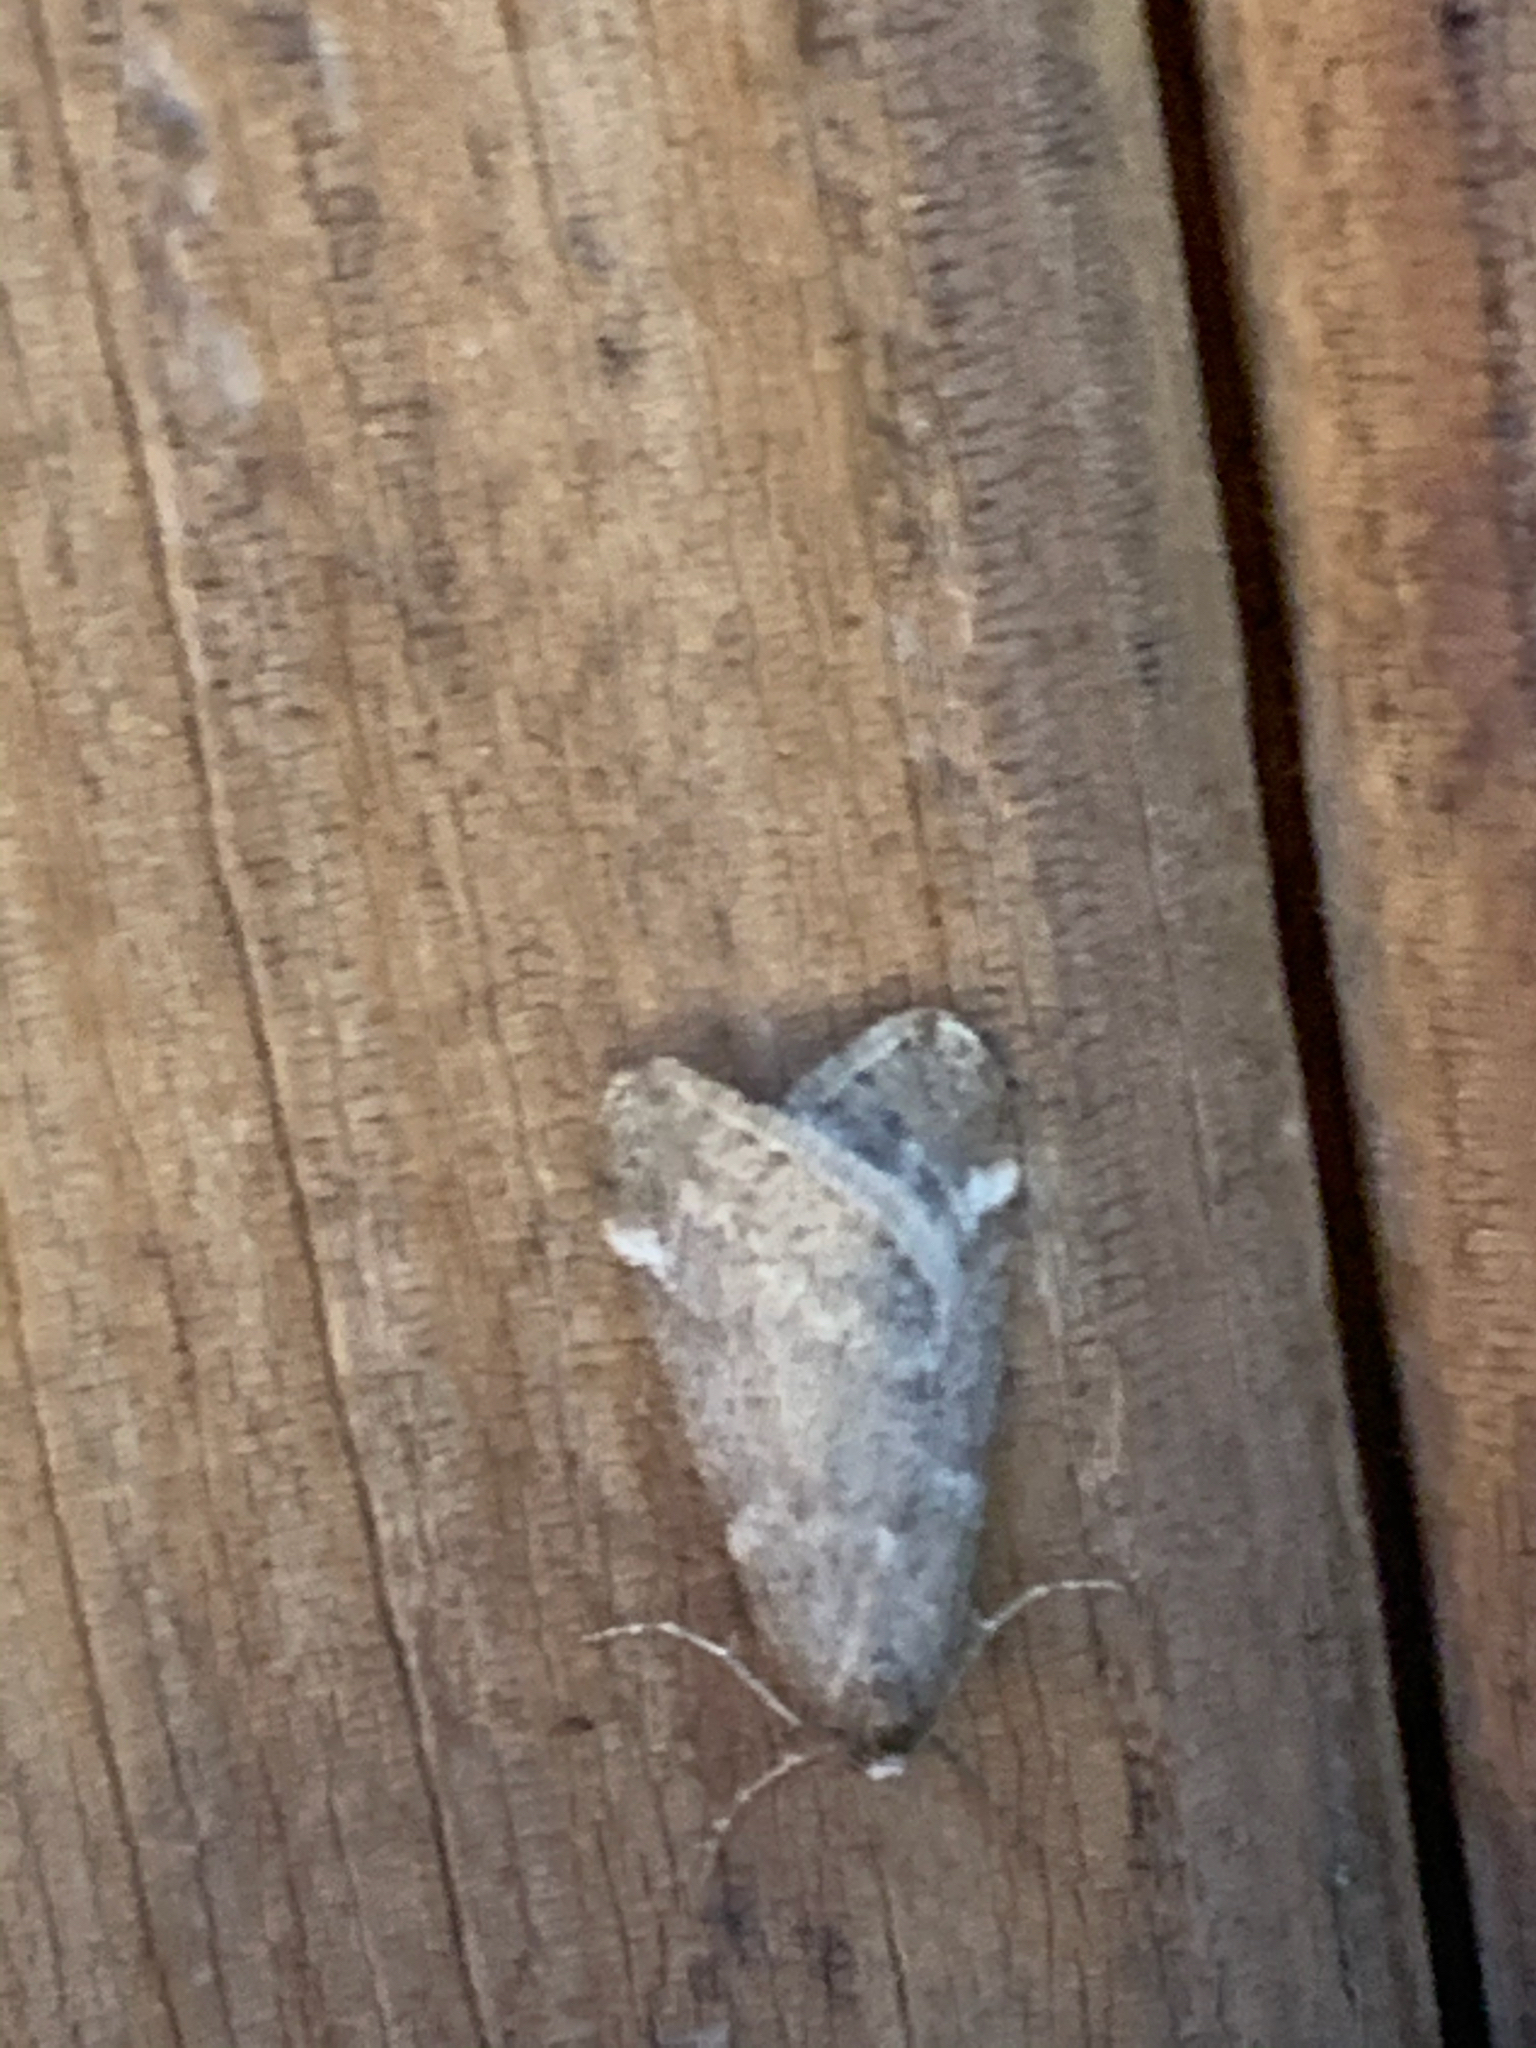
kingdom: Animalia
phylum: Arthropoda
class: Insecta
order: Lepidoptera
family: Geometridae
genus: Alsophila
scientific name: Alsophila pometaria
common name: Fall cankerworm
